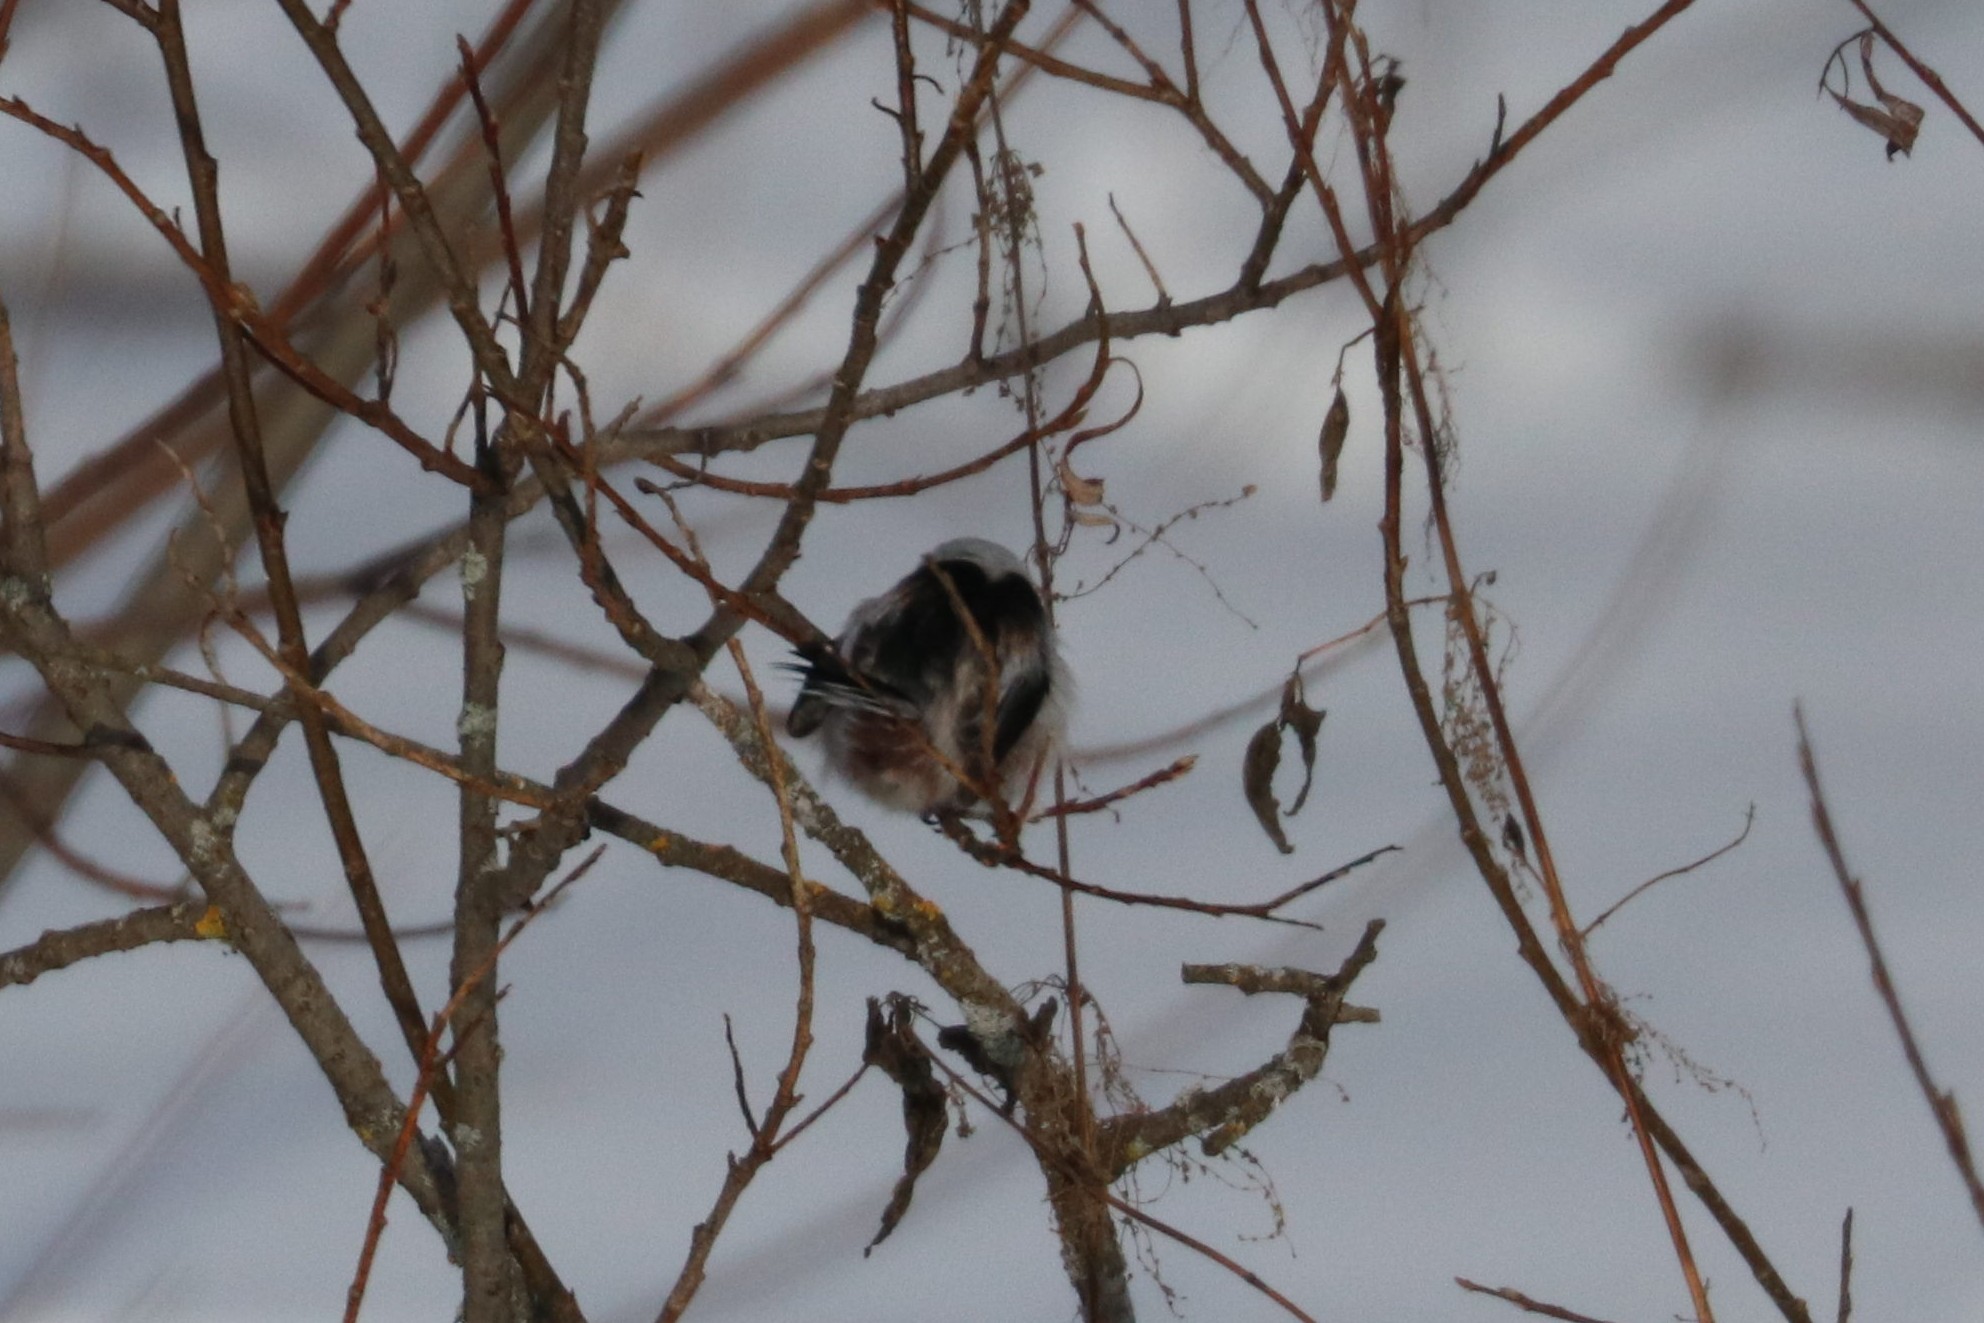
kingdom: Animalia
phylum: Chordata
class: Aves
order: Passeriformes
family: Aegithalidae
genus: Aegithalos
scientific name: Aegithalos caudatus
